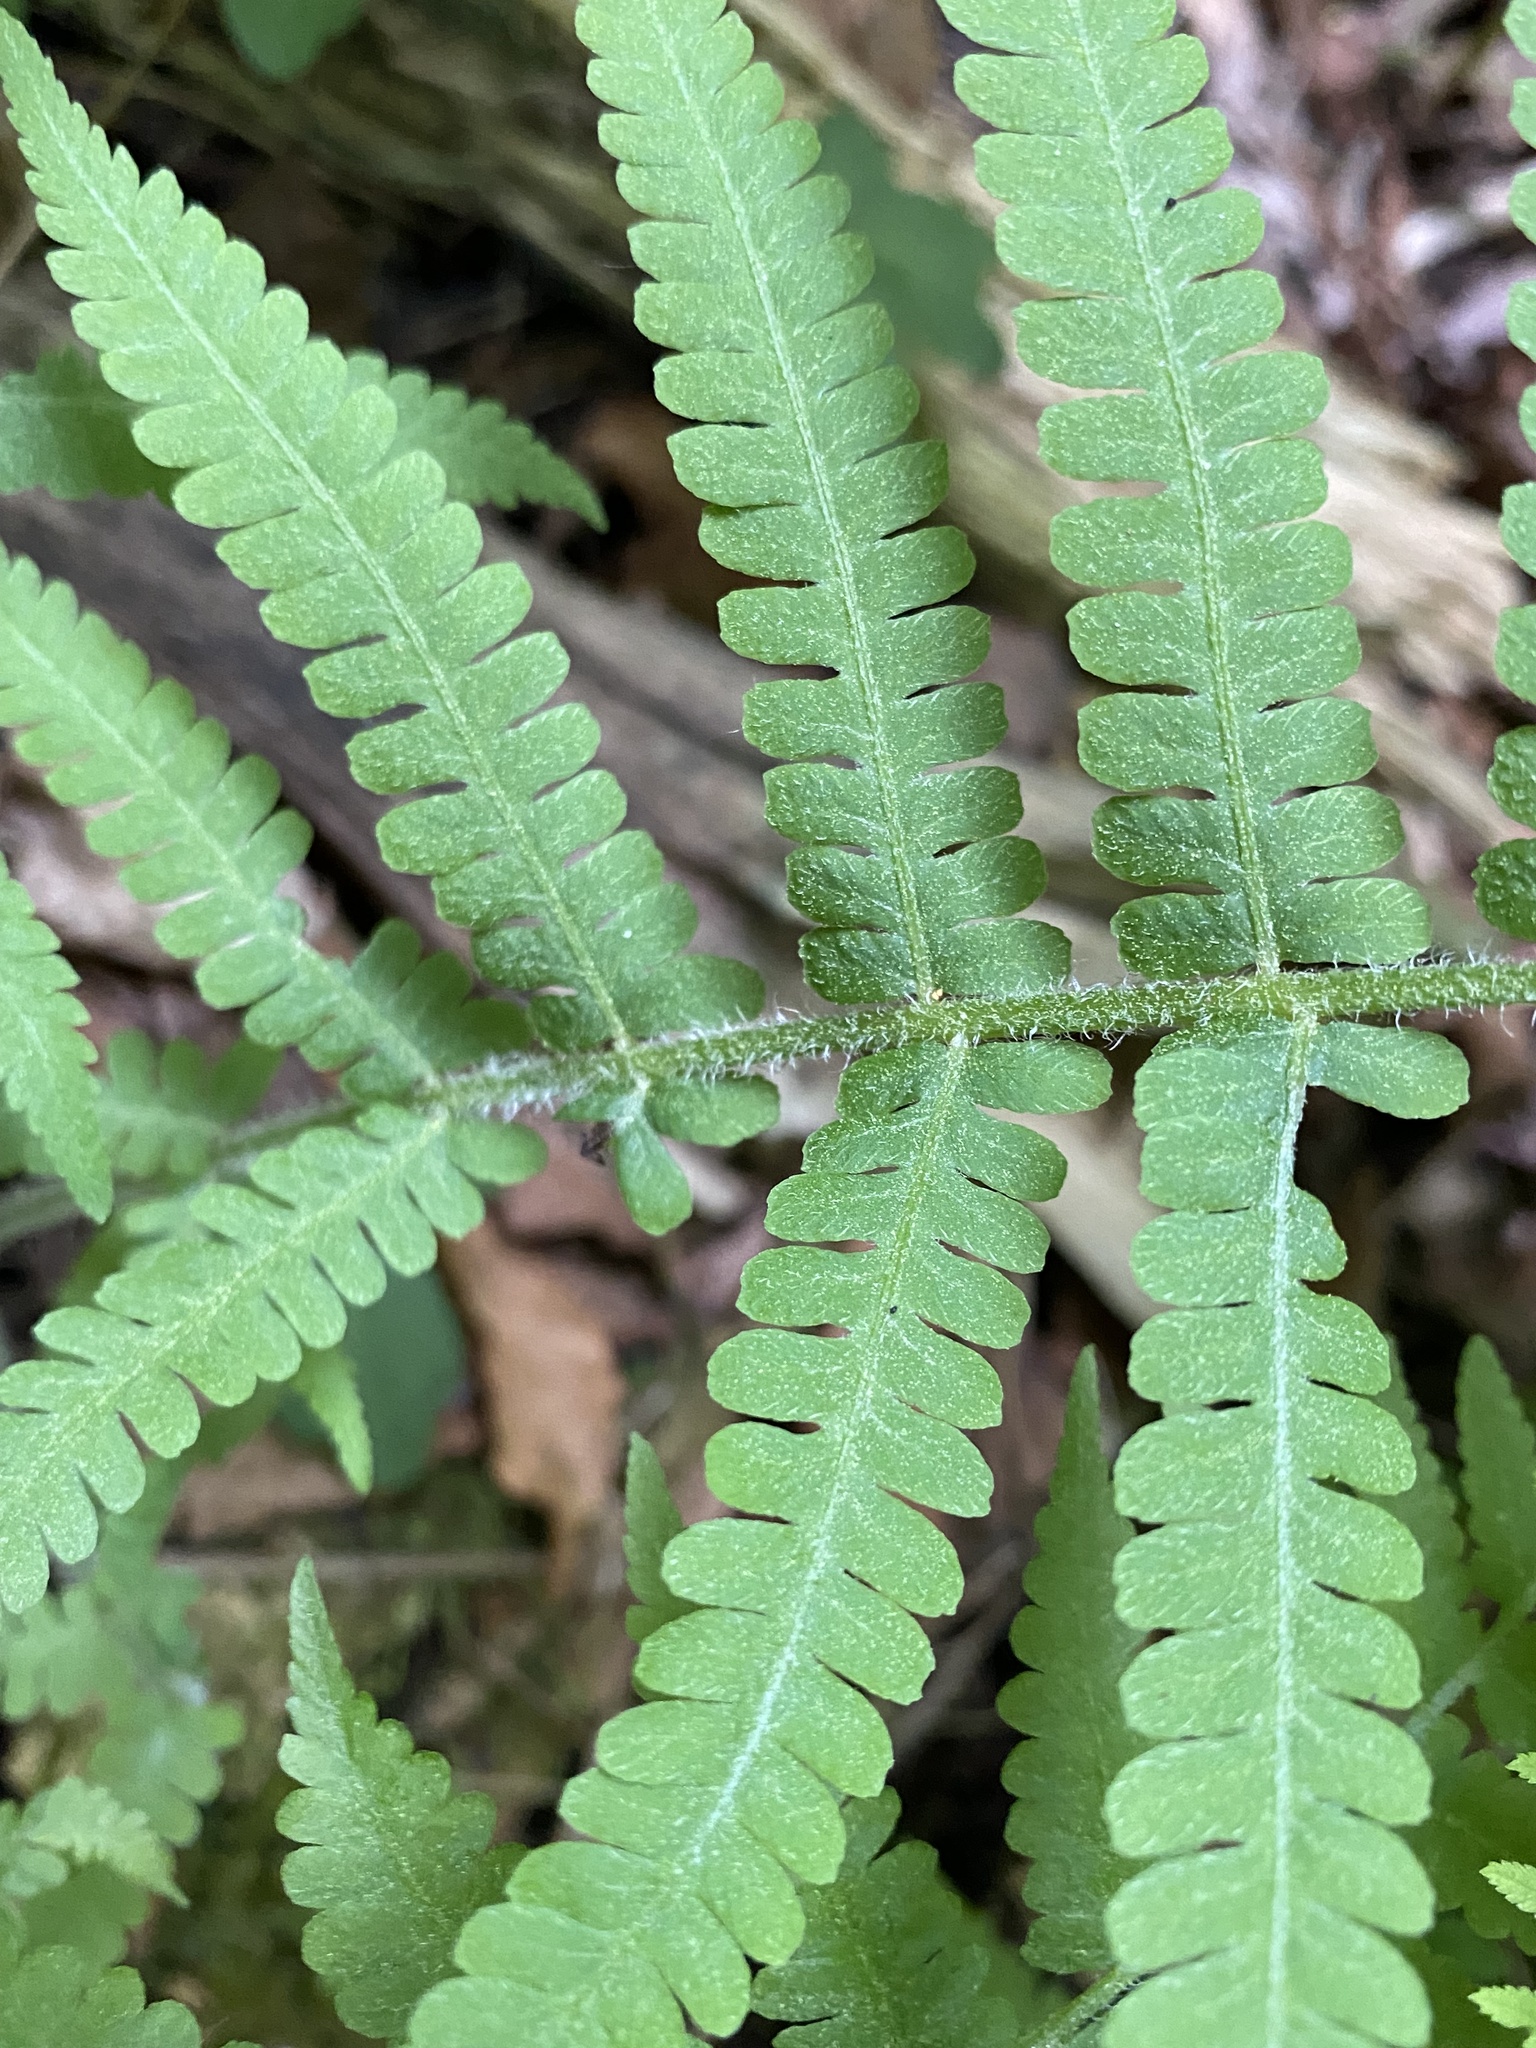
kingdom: Plantae
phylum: Tracheophyta
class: Polypodiopsida
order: Polypodiales
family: Athyriaceae
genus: Deparia
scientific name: Deparia acrostichoides
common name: Silver false spleenwort
